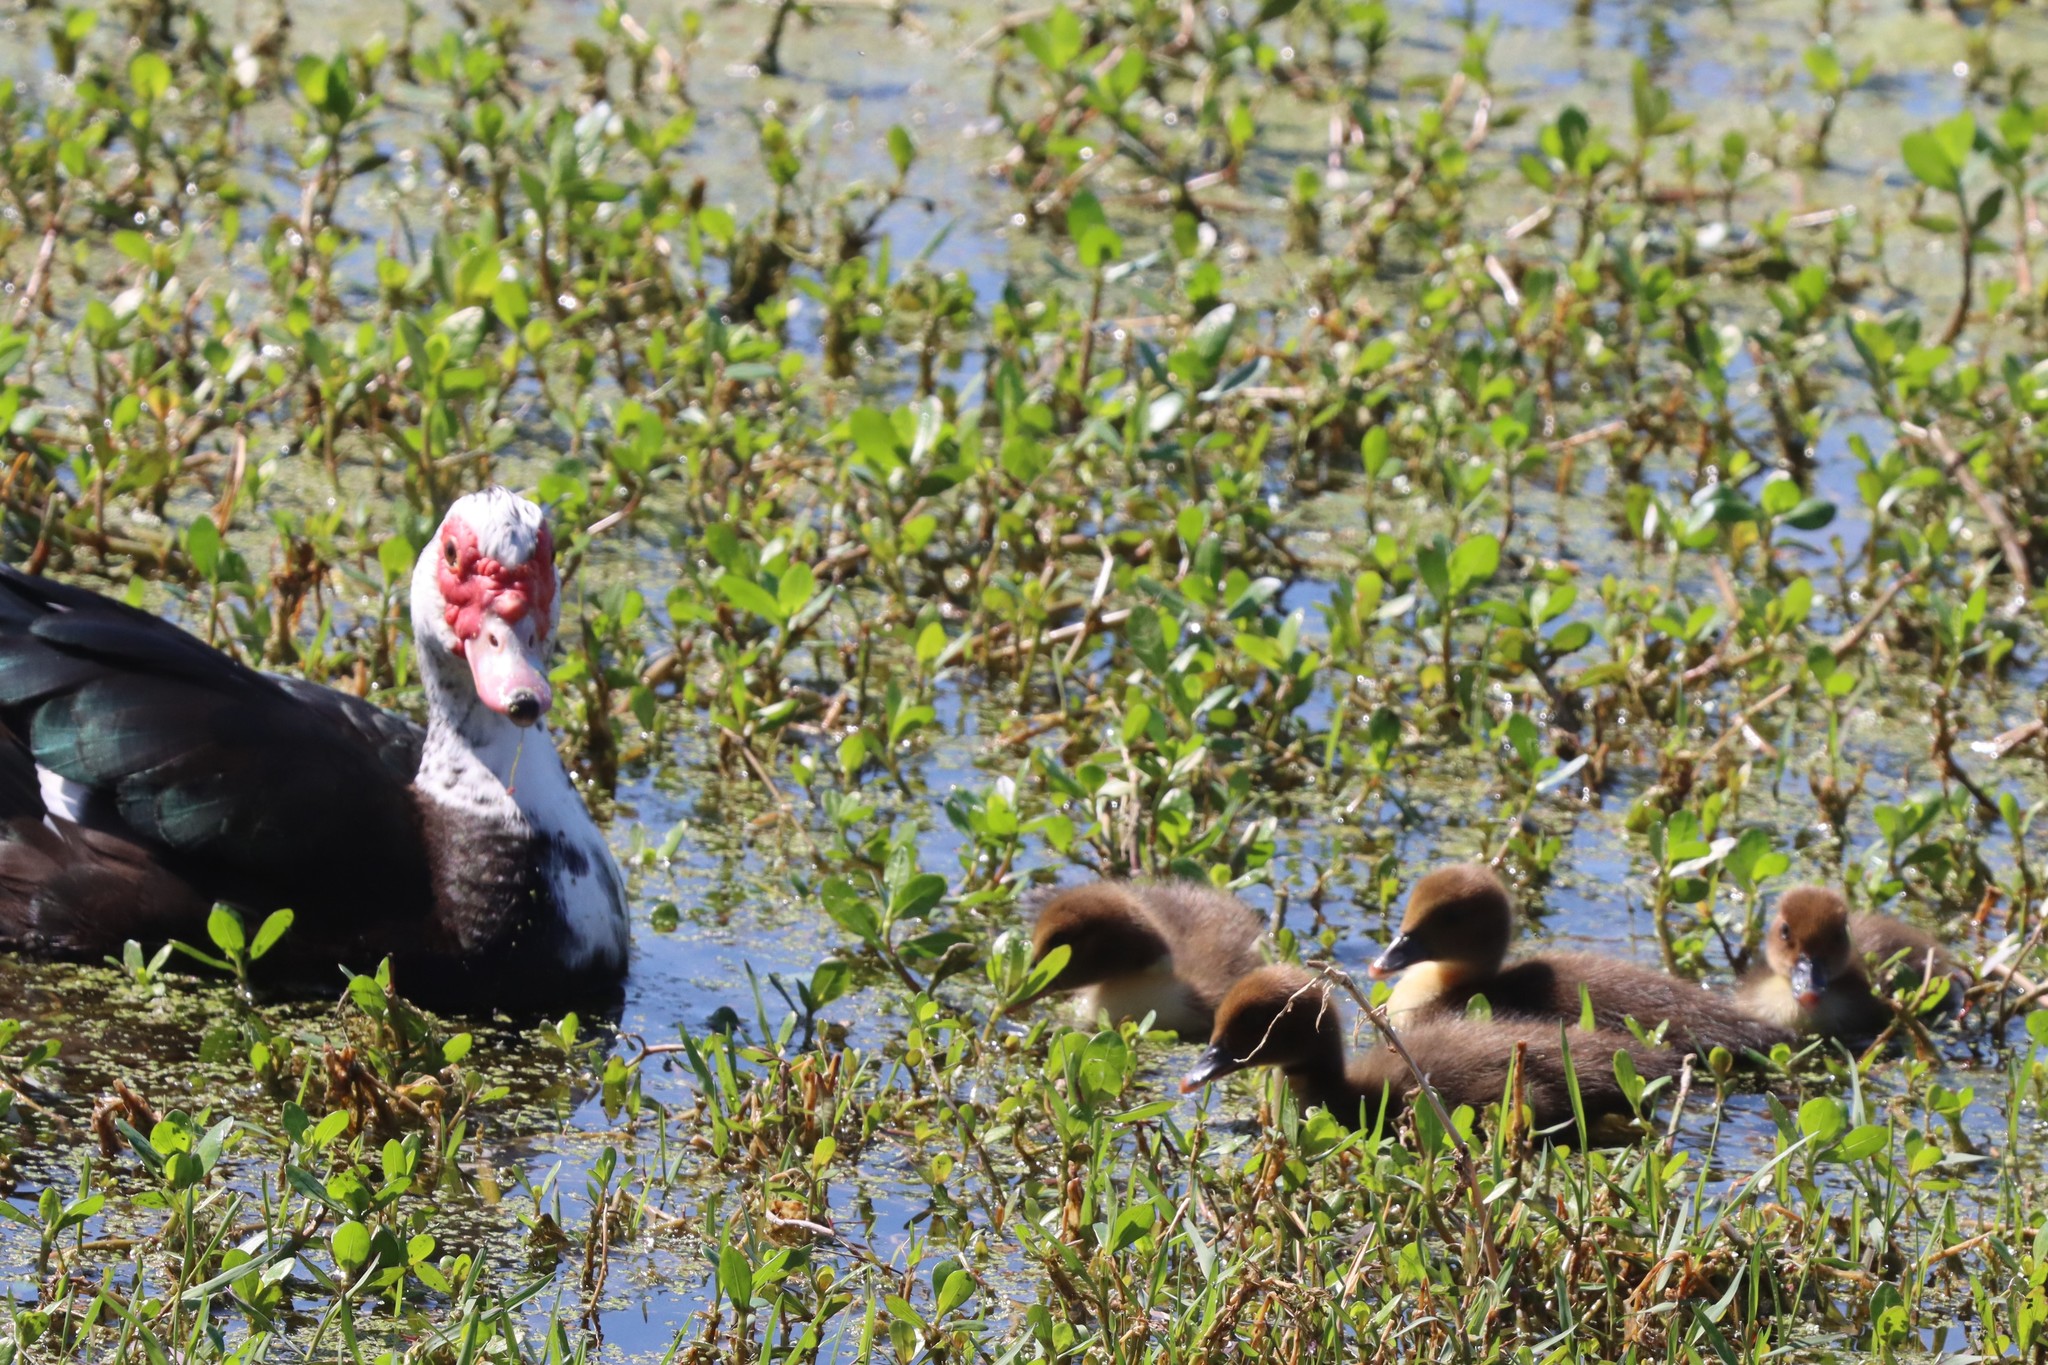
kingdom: Animalia
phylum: Chordata
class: Aves
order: Anseriformes
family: Anatidae
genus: Cairina
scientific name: Cairina moschata
